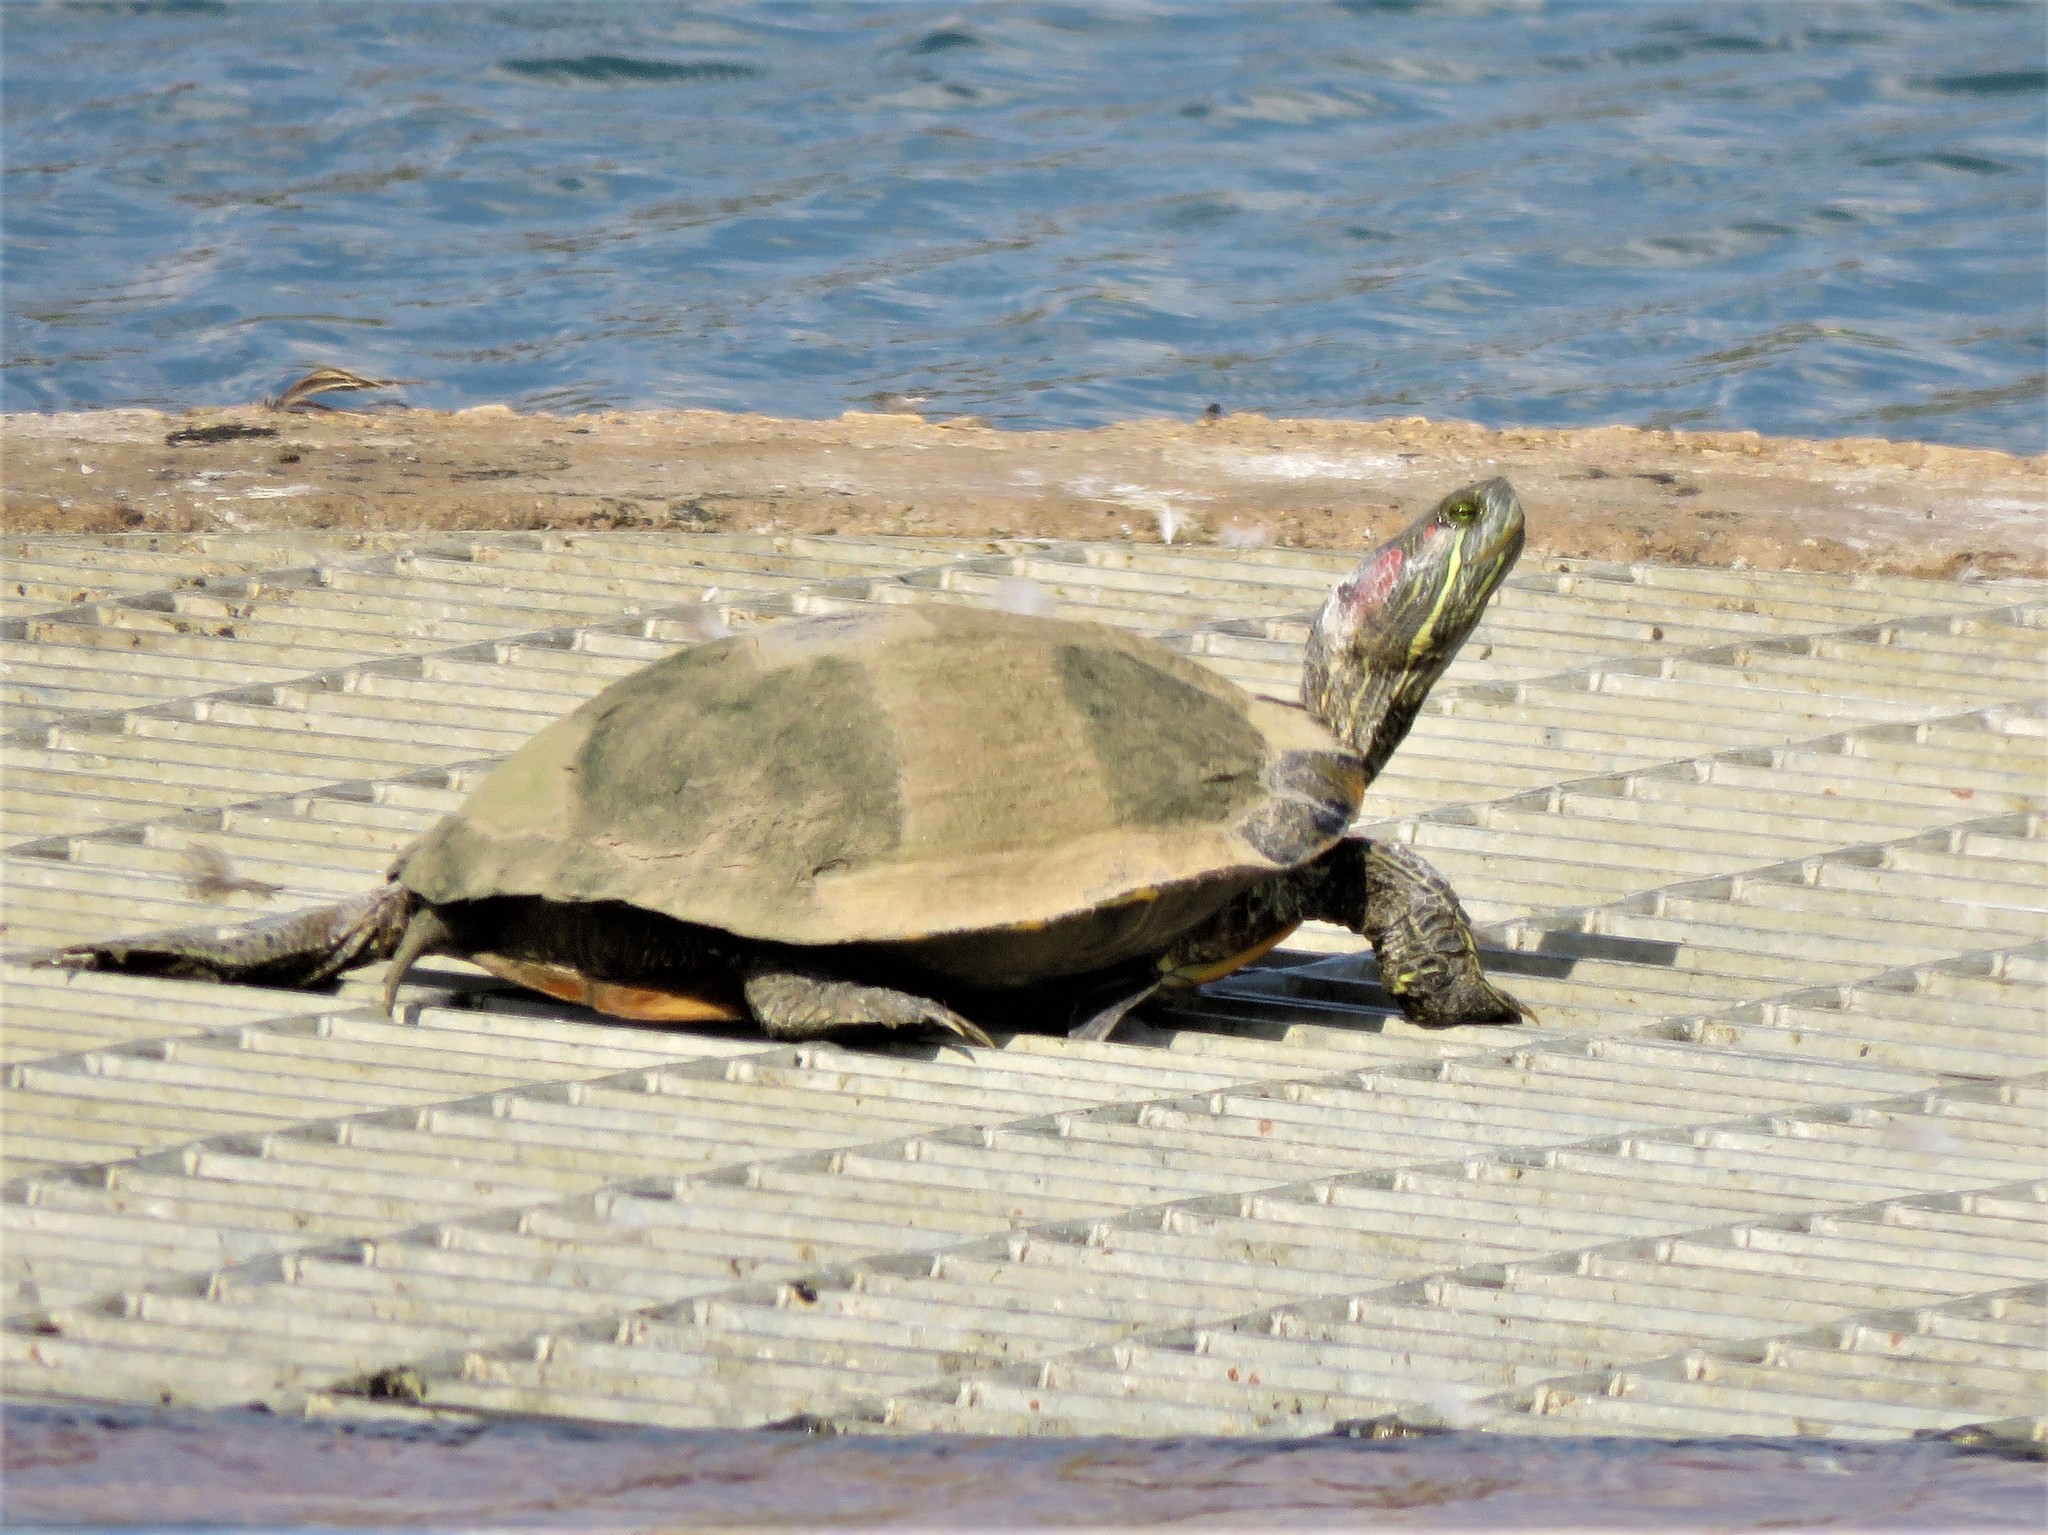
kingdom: Animalia
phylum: Chordata
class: Testudines
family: Emydidae
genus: Trachemys
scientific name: Trachemys scripta
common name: Slider
